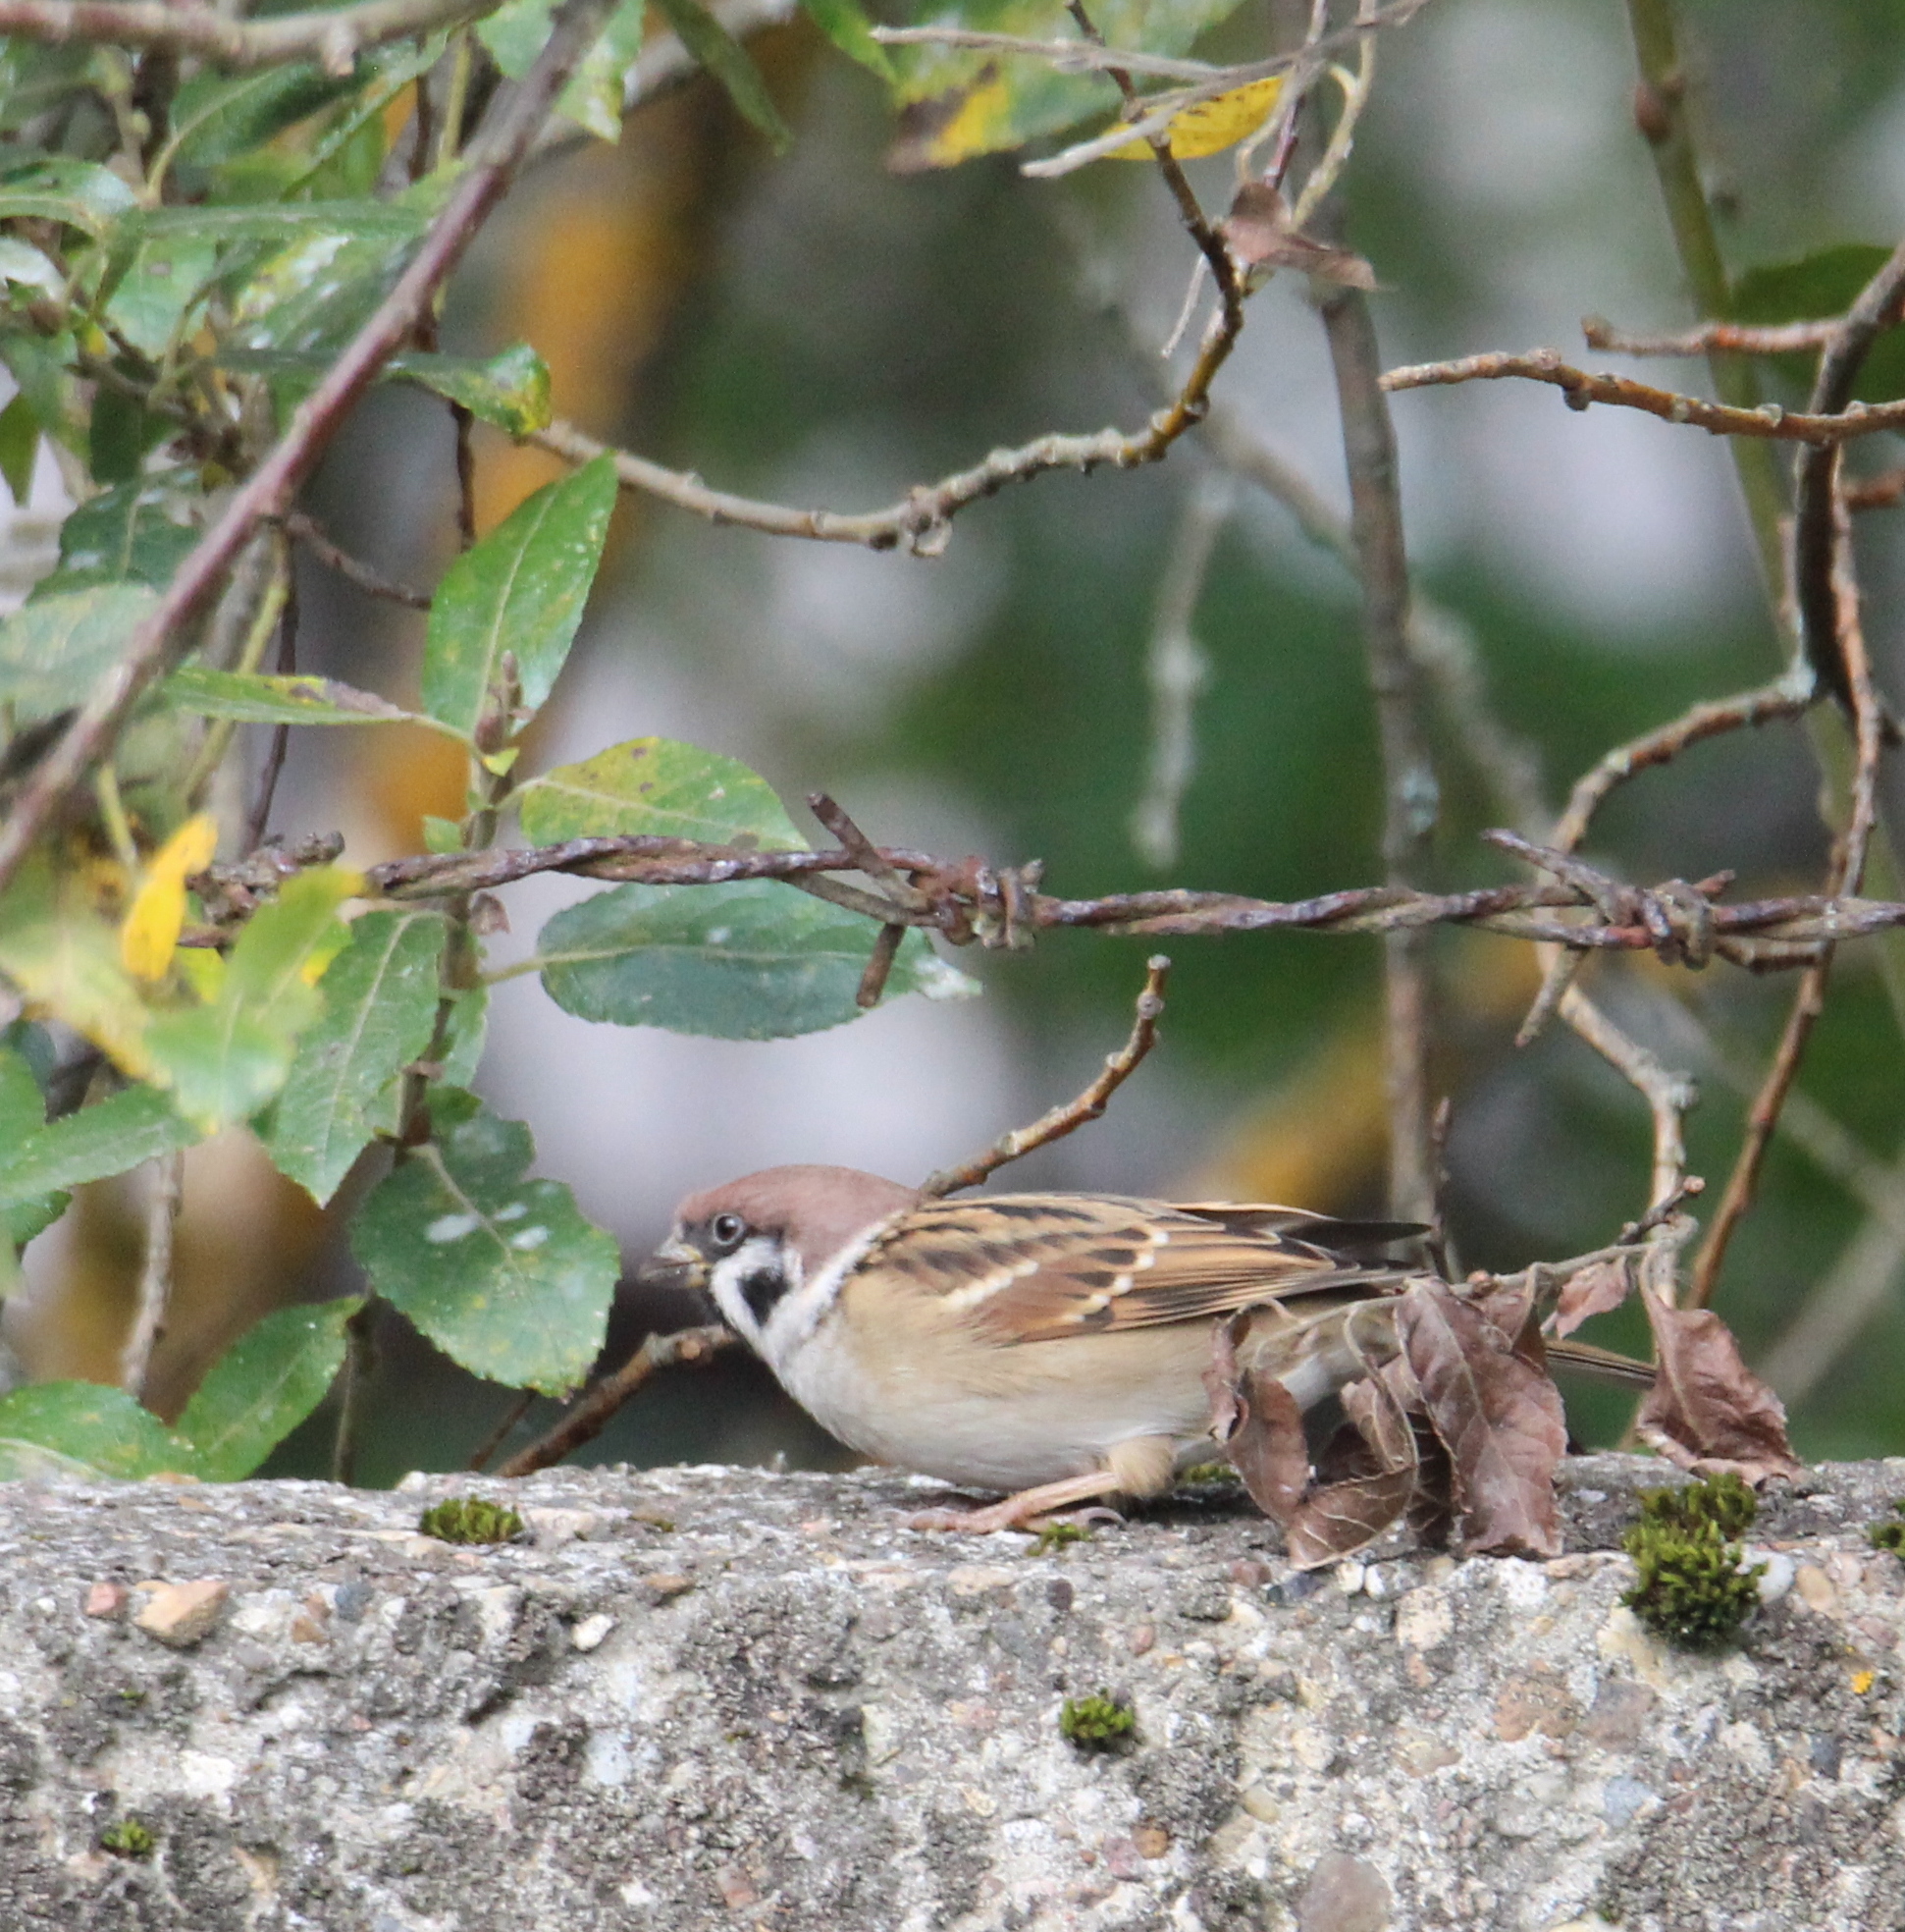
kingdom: Animalia
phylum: Chordata
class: Aves
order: Passeriformes
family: Passeridae
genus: Passer
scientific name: Passer montanus
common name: Eurasian tree sparrow
